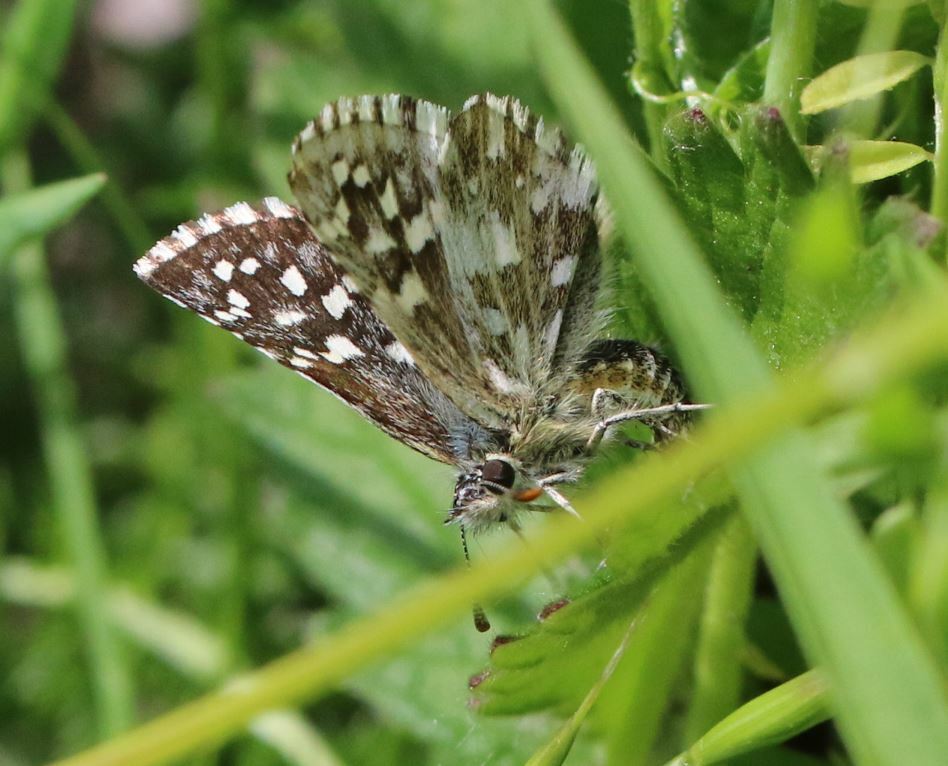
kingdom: Animalia
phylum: Arthropoda
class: Insecta
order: Lepidoptera
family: Hesperiidae
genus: Pyrgus
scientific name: Pyrgus malvoides
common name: Southern grizzled skipper
